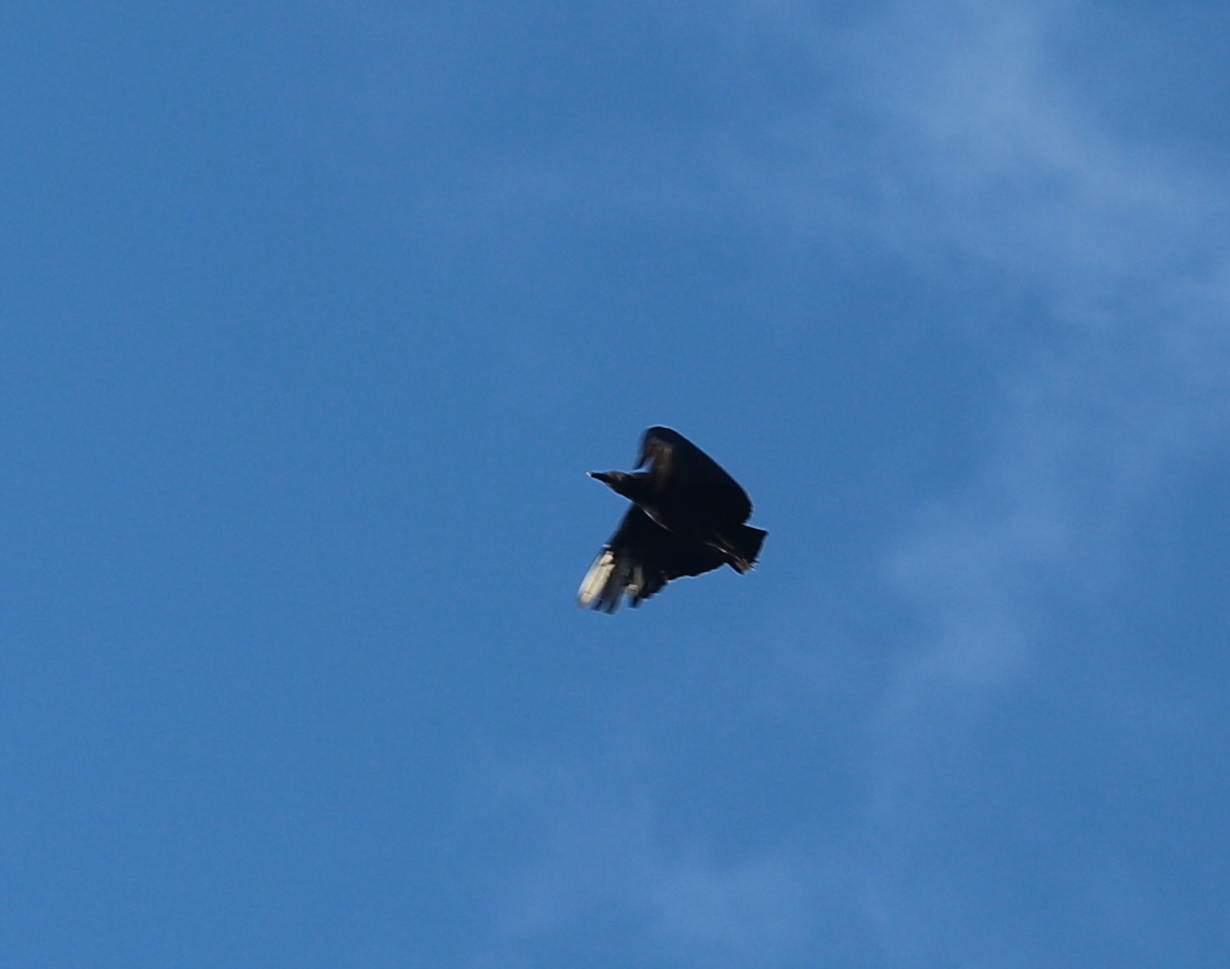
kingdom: Animalia
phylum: Chordata
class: Aves
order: Accipitriformes
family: Cathartidae
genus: Coragyps
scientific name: Coragyps atratus
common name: Black vulture
